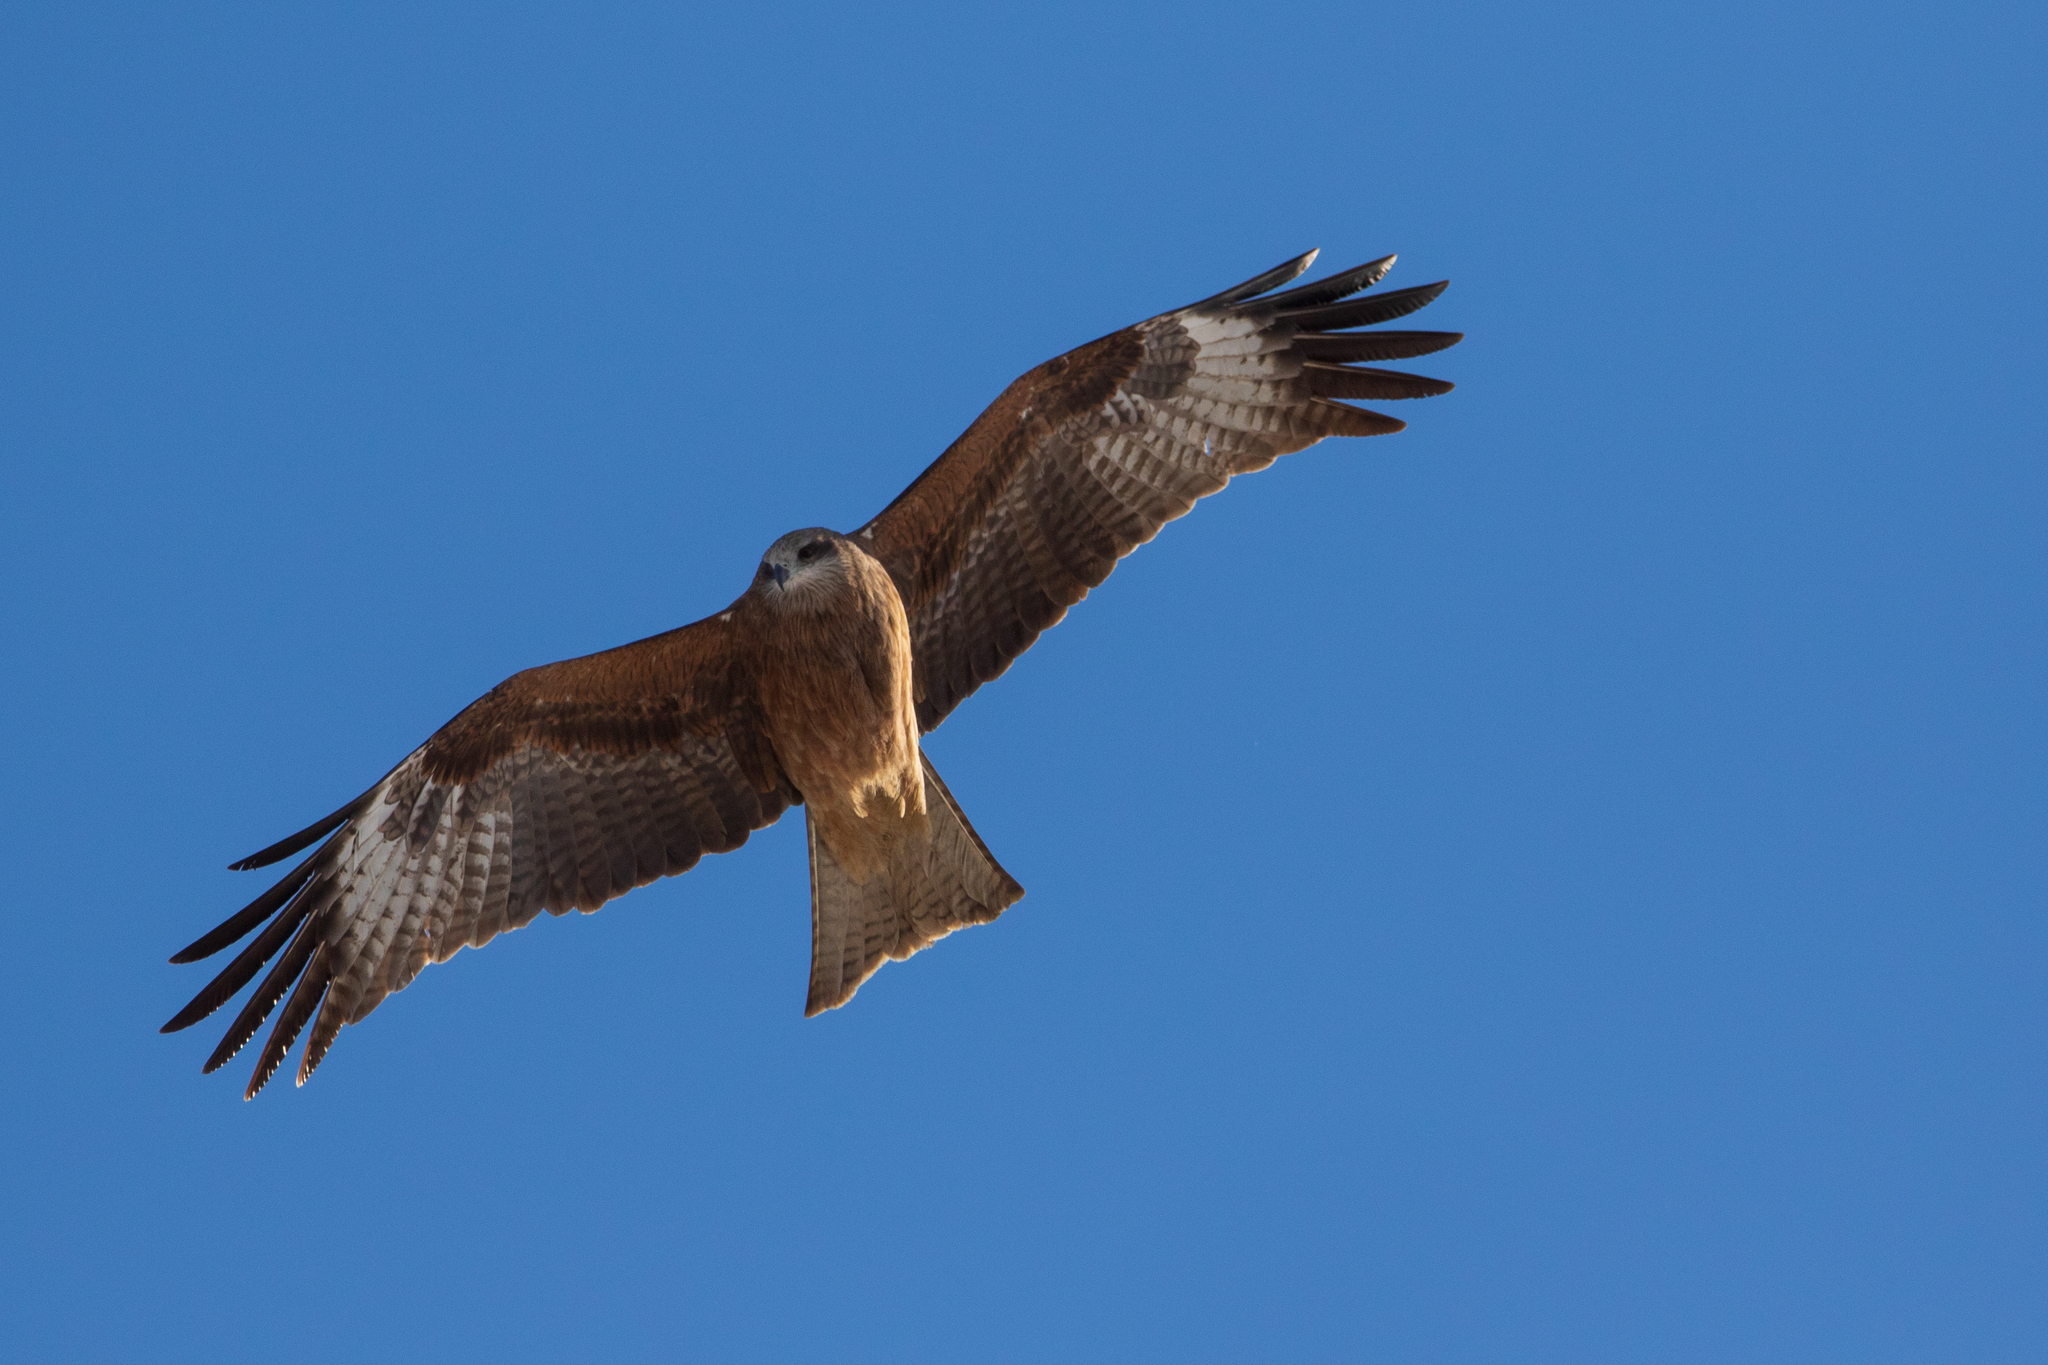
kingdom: Animalia
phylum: Chordata
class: Aves
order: Accipitriformes
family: Accipitridae
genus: Milvus
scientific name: Milvus migrans
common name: Black kite
